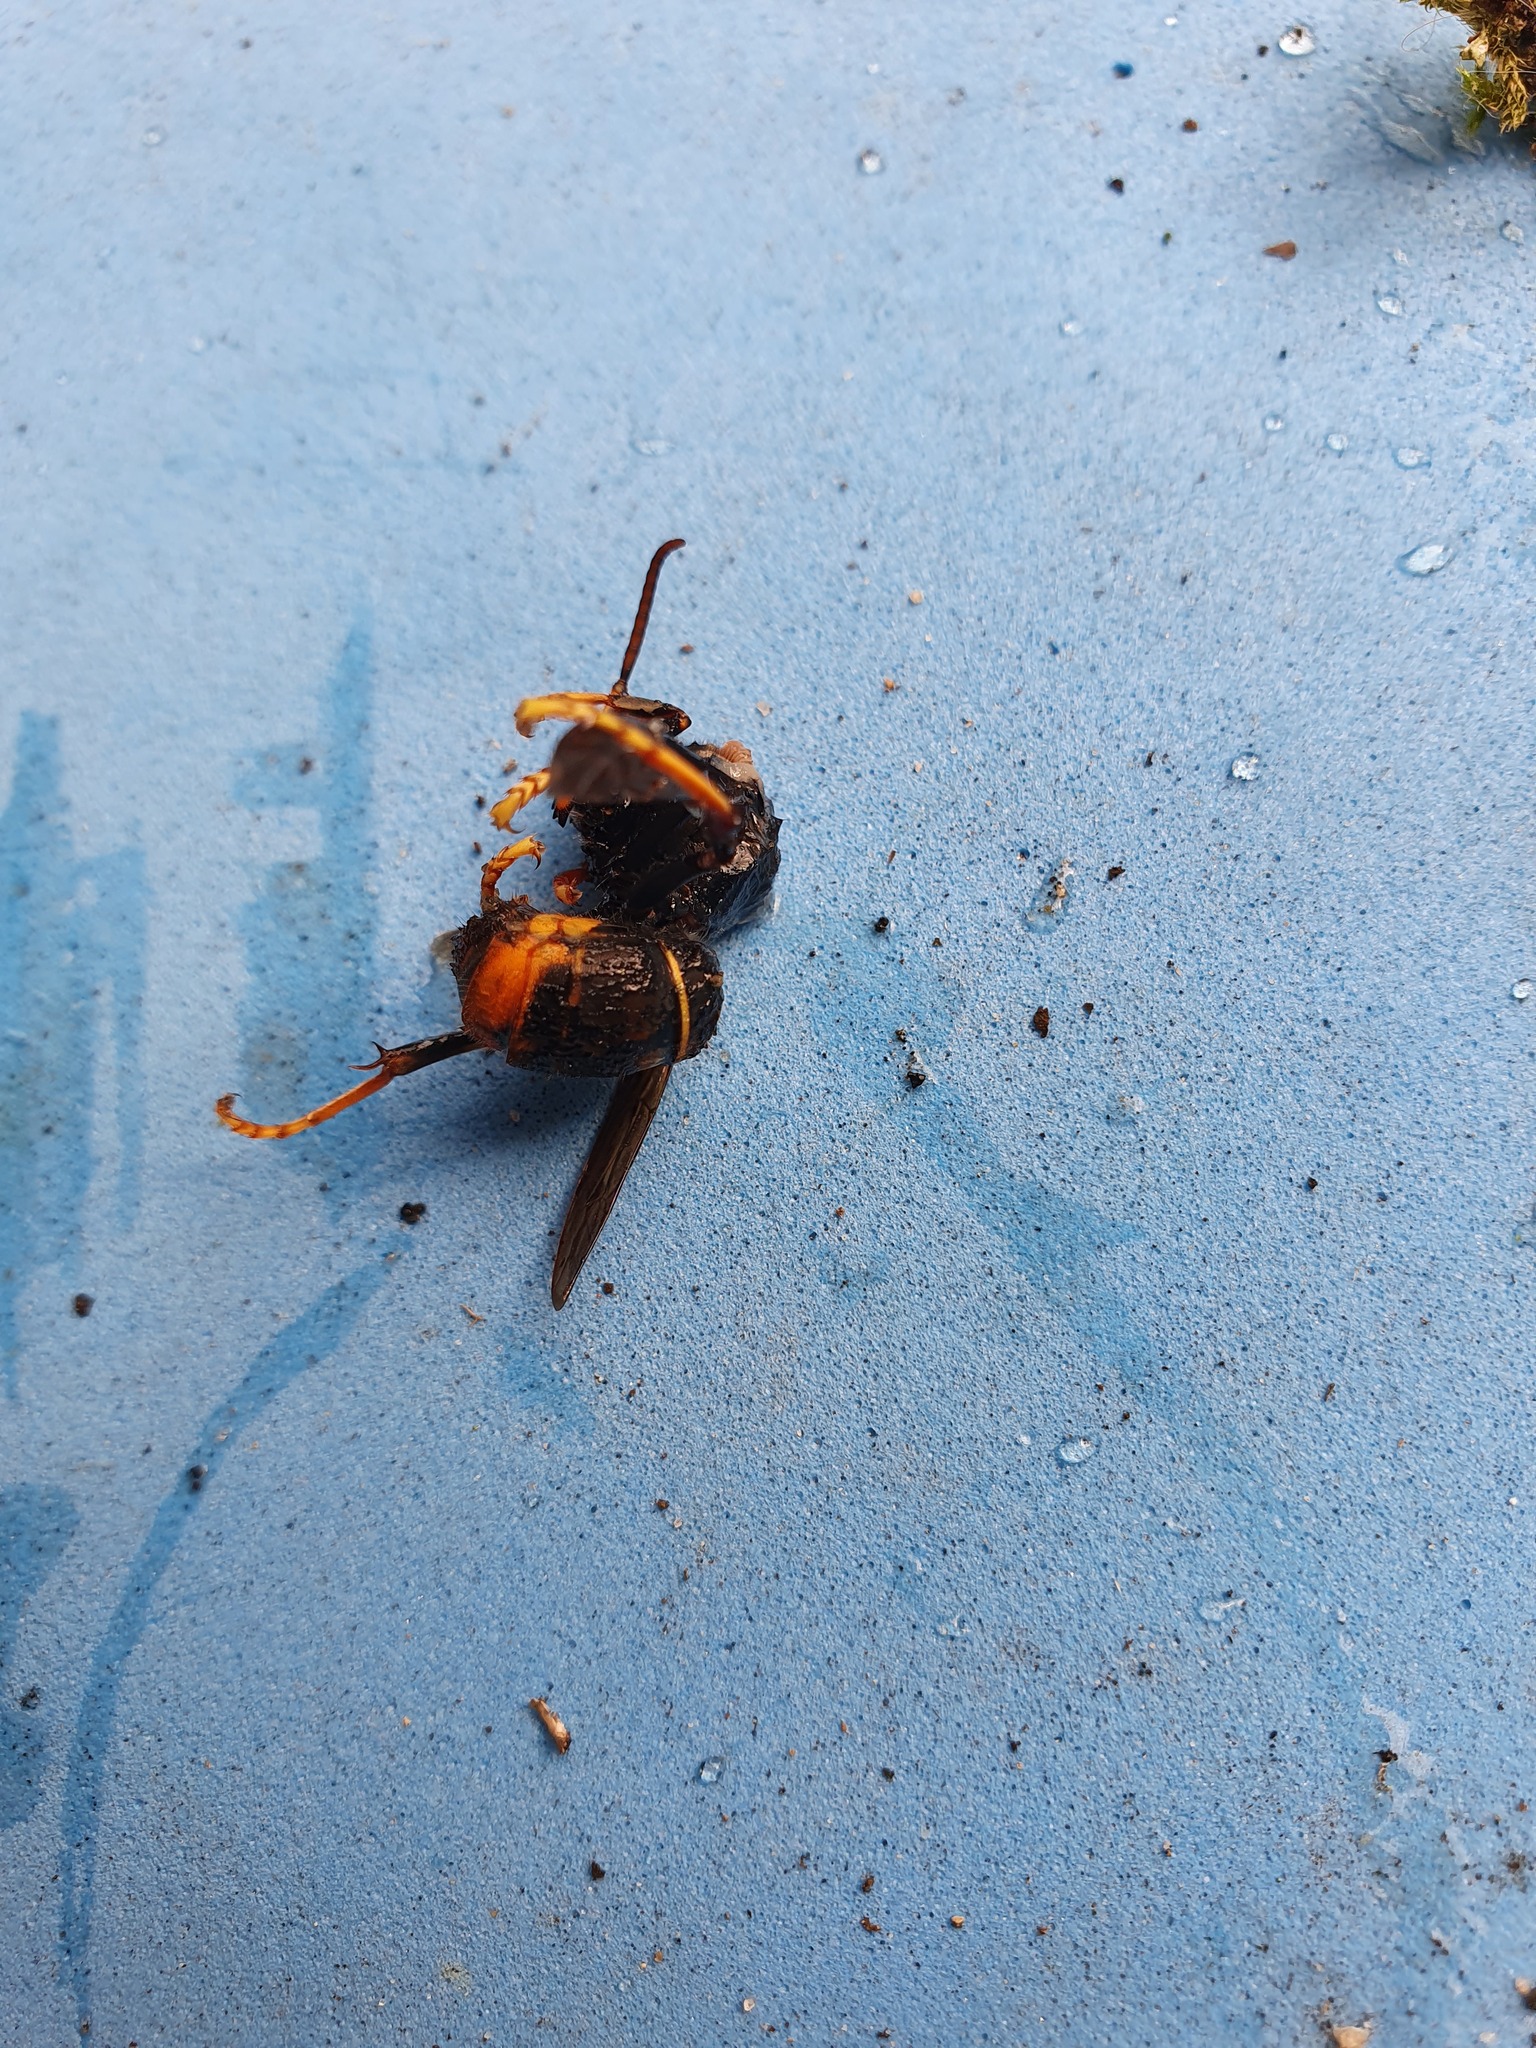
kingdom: Animalia
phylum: Arthropoda
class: Insecta
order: Hymenoptera
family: Vespidae
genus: Vespa
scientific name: Vespa velutina
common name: Asian hornet
